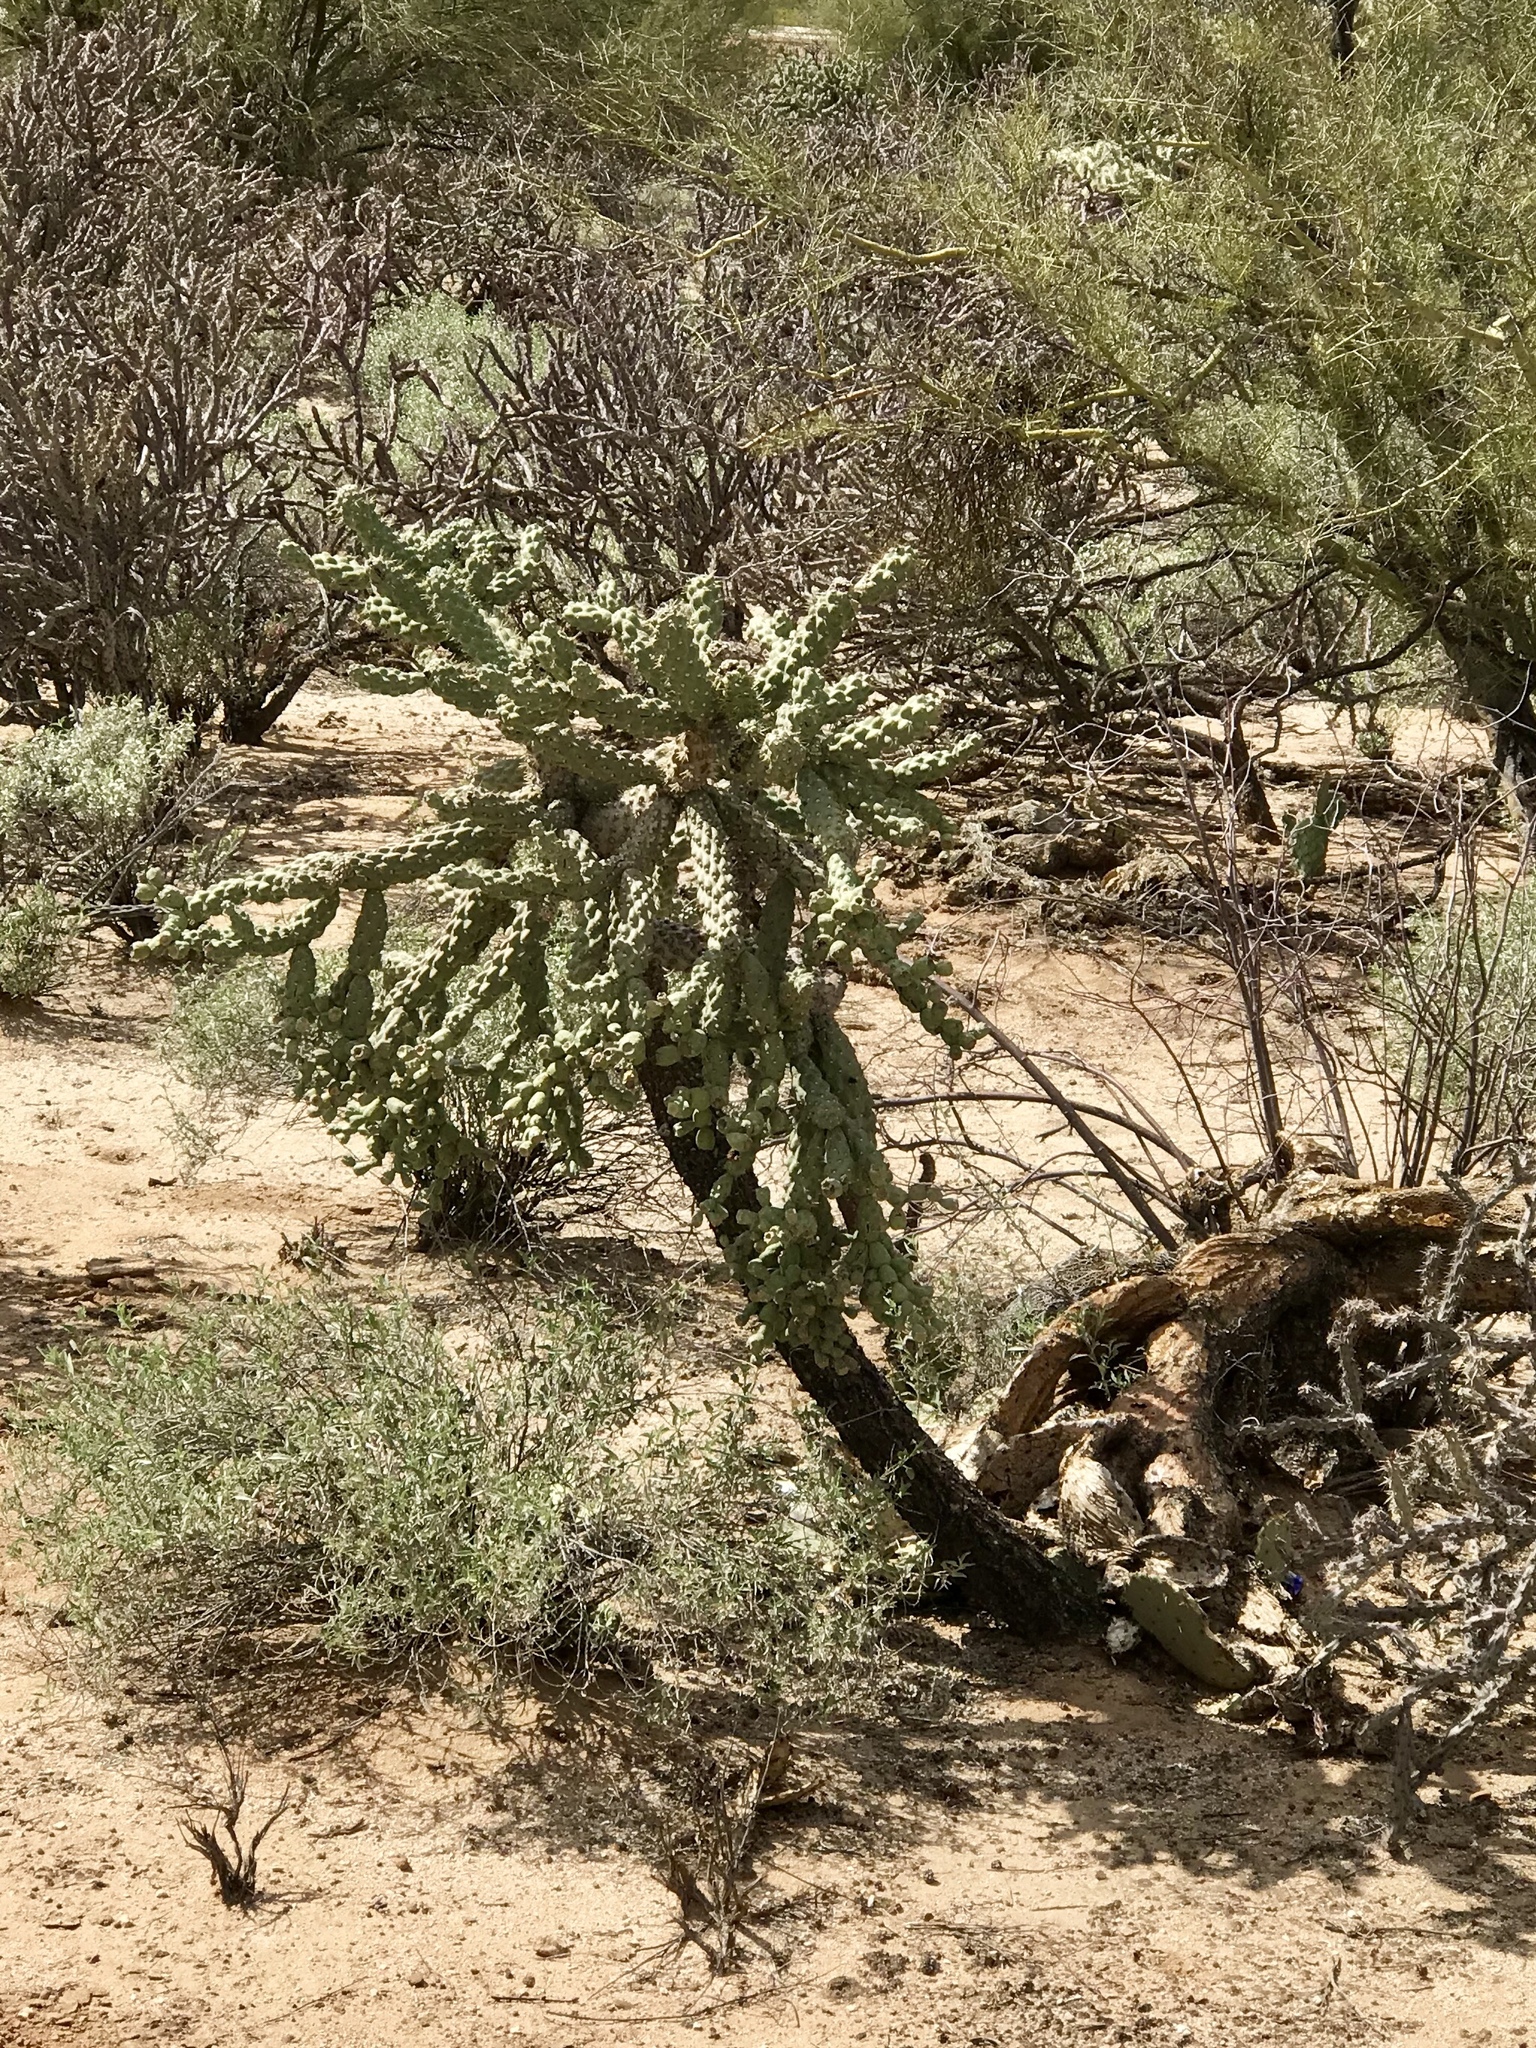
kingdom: Plantae
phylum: Tracheophyta
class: Magnoliopsida
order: Caryophyllales
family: Cactaceae
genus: Cylindropuntia
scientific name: Cylindropuntia fulgida
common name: Jumping cholla
